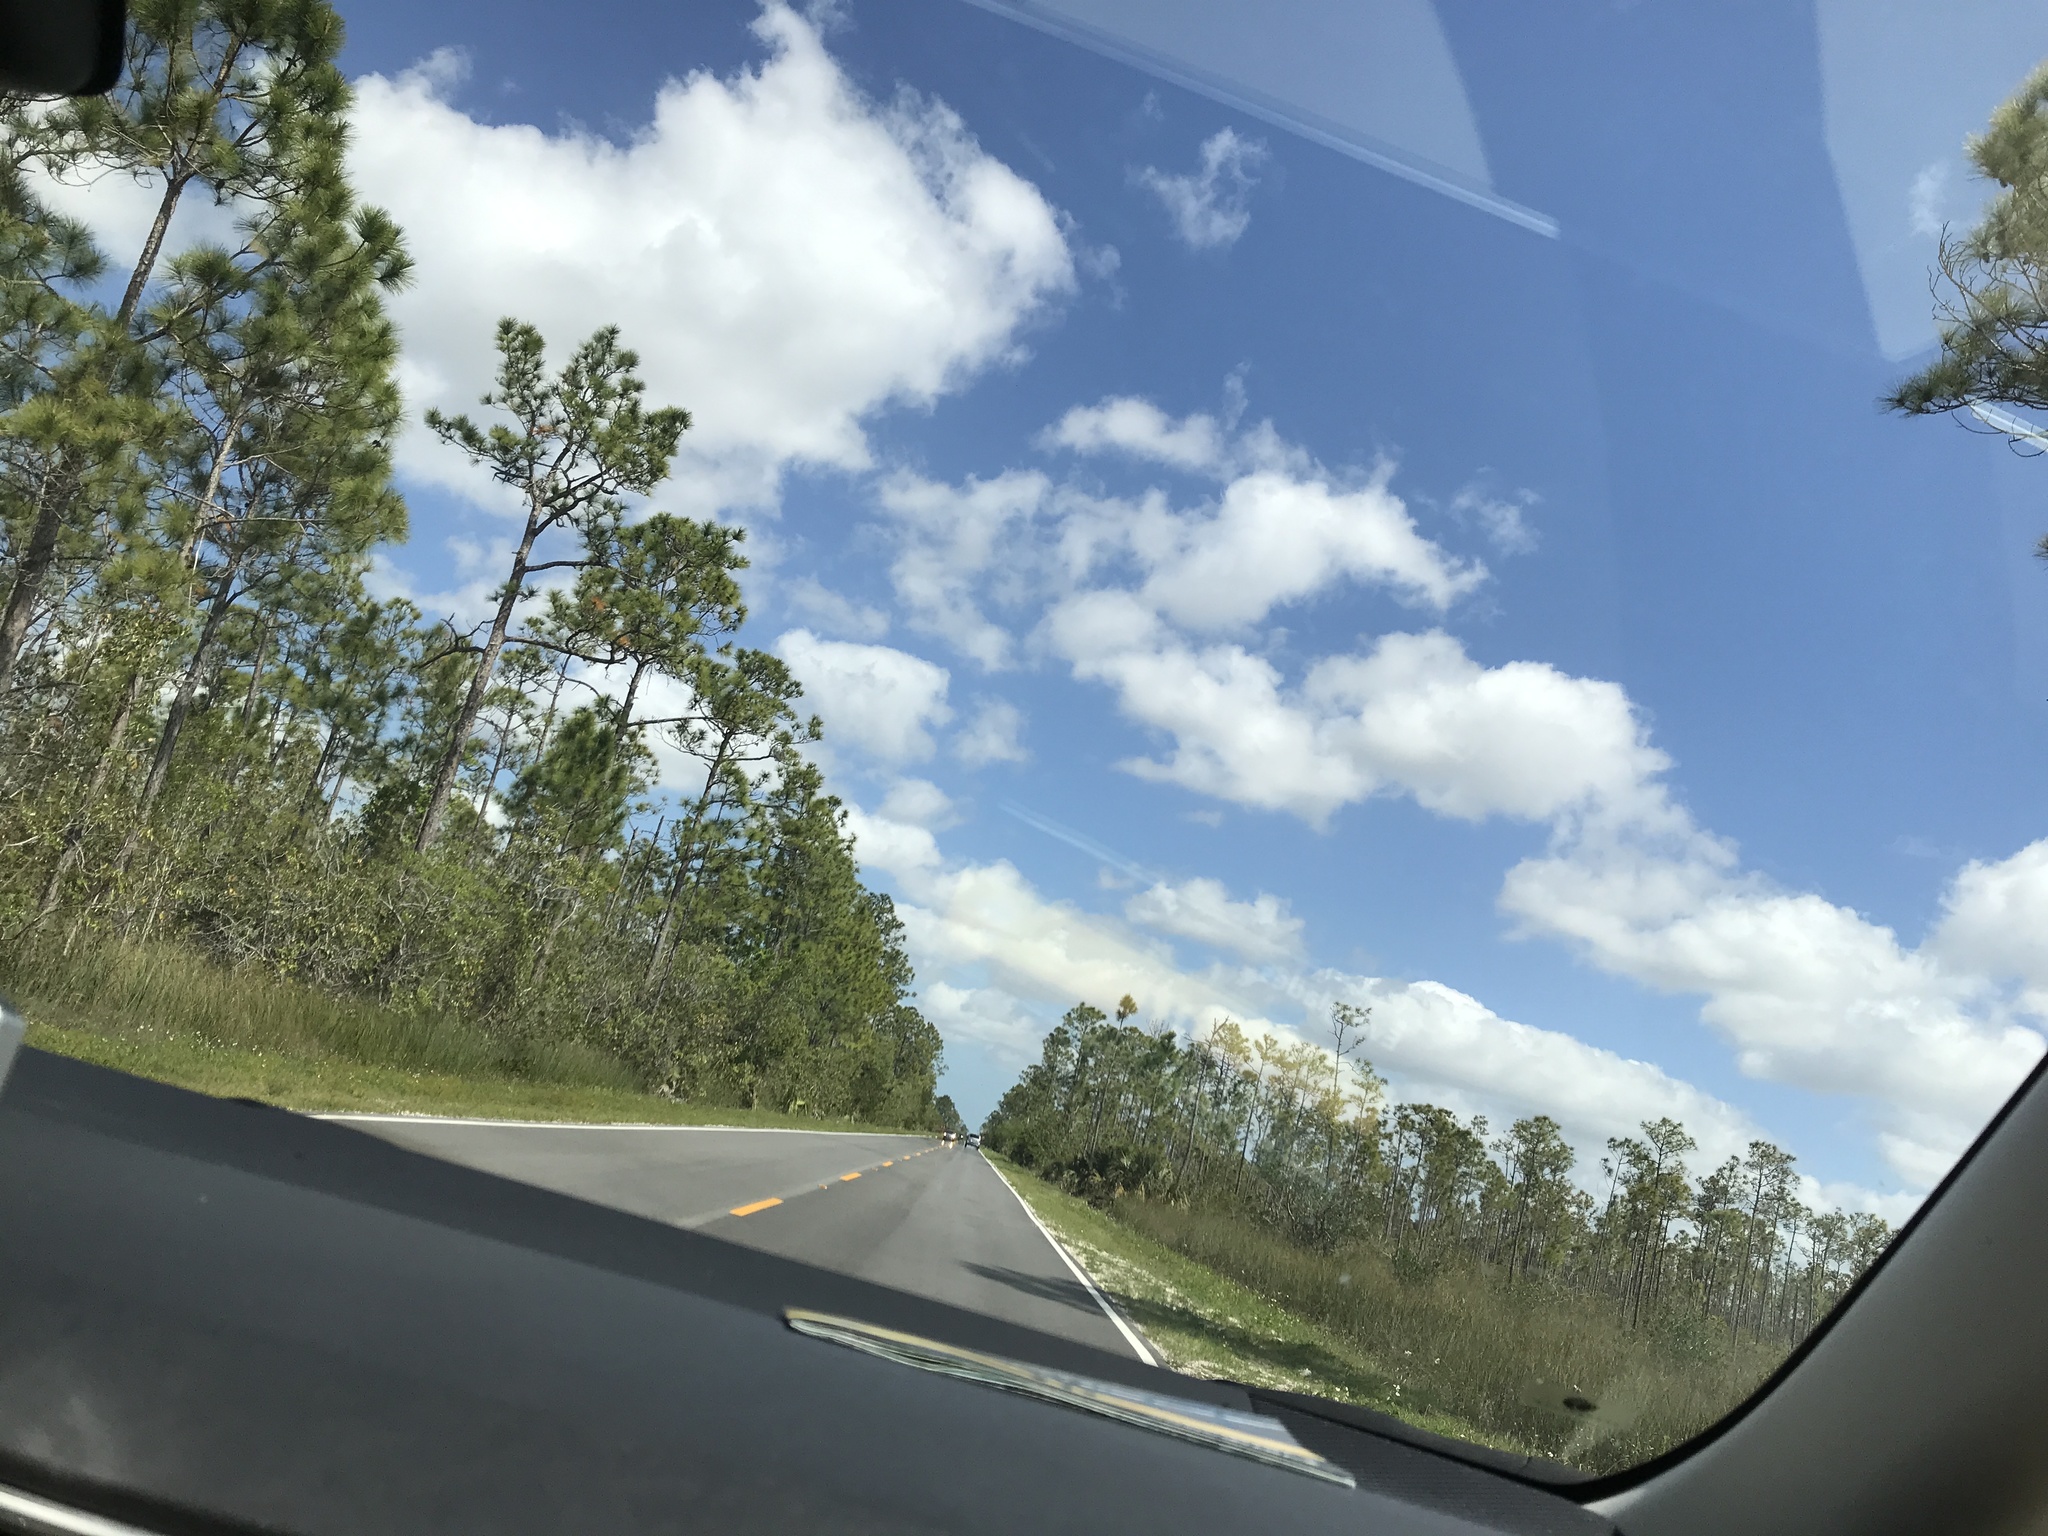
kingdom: Plantae
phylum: Tracheophyta
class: Pinopsida
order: Pinales
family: Pinaceae
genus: Pinus
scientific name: Pinus elliottii
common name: Slash pine
